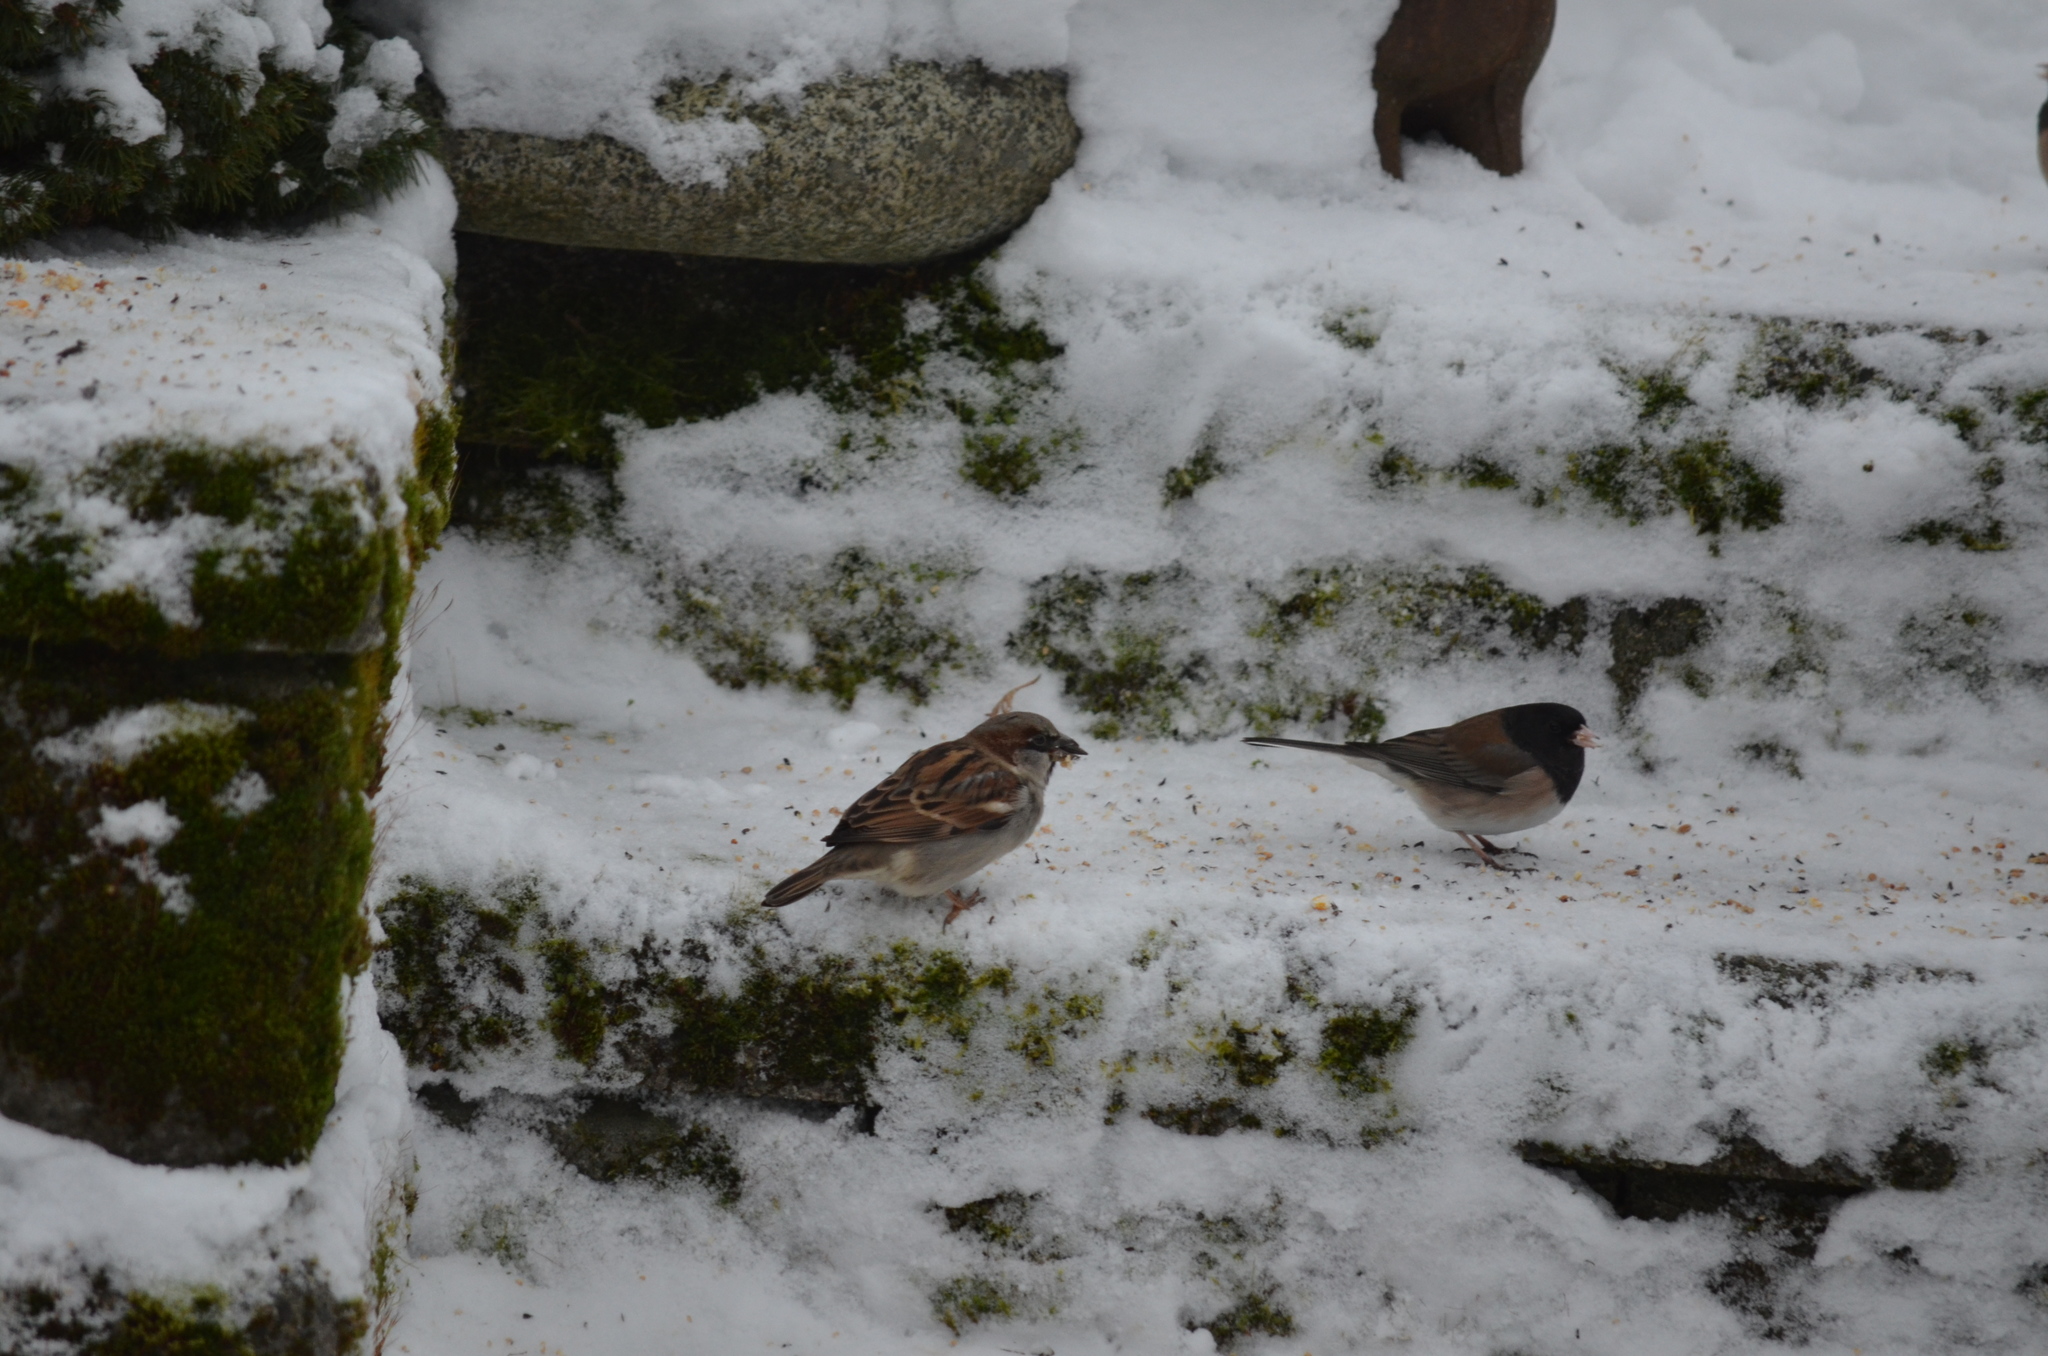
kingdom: Animalia
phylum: Chordata
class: Aves
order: Passeriformes
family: Passeridae
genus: Passer
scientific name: Passer domesticus
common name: House sparrow
